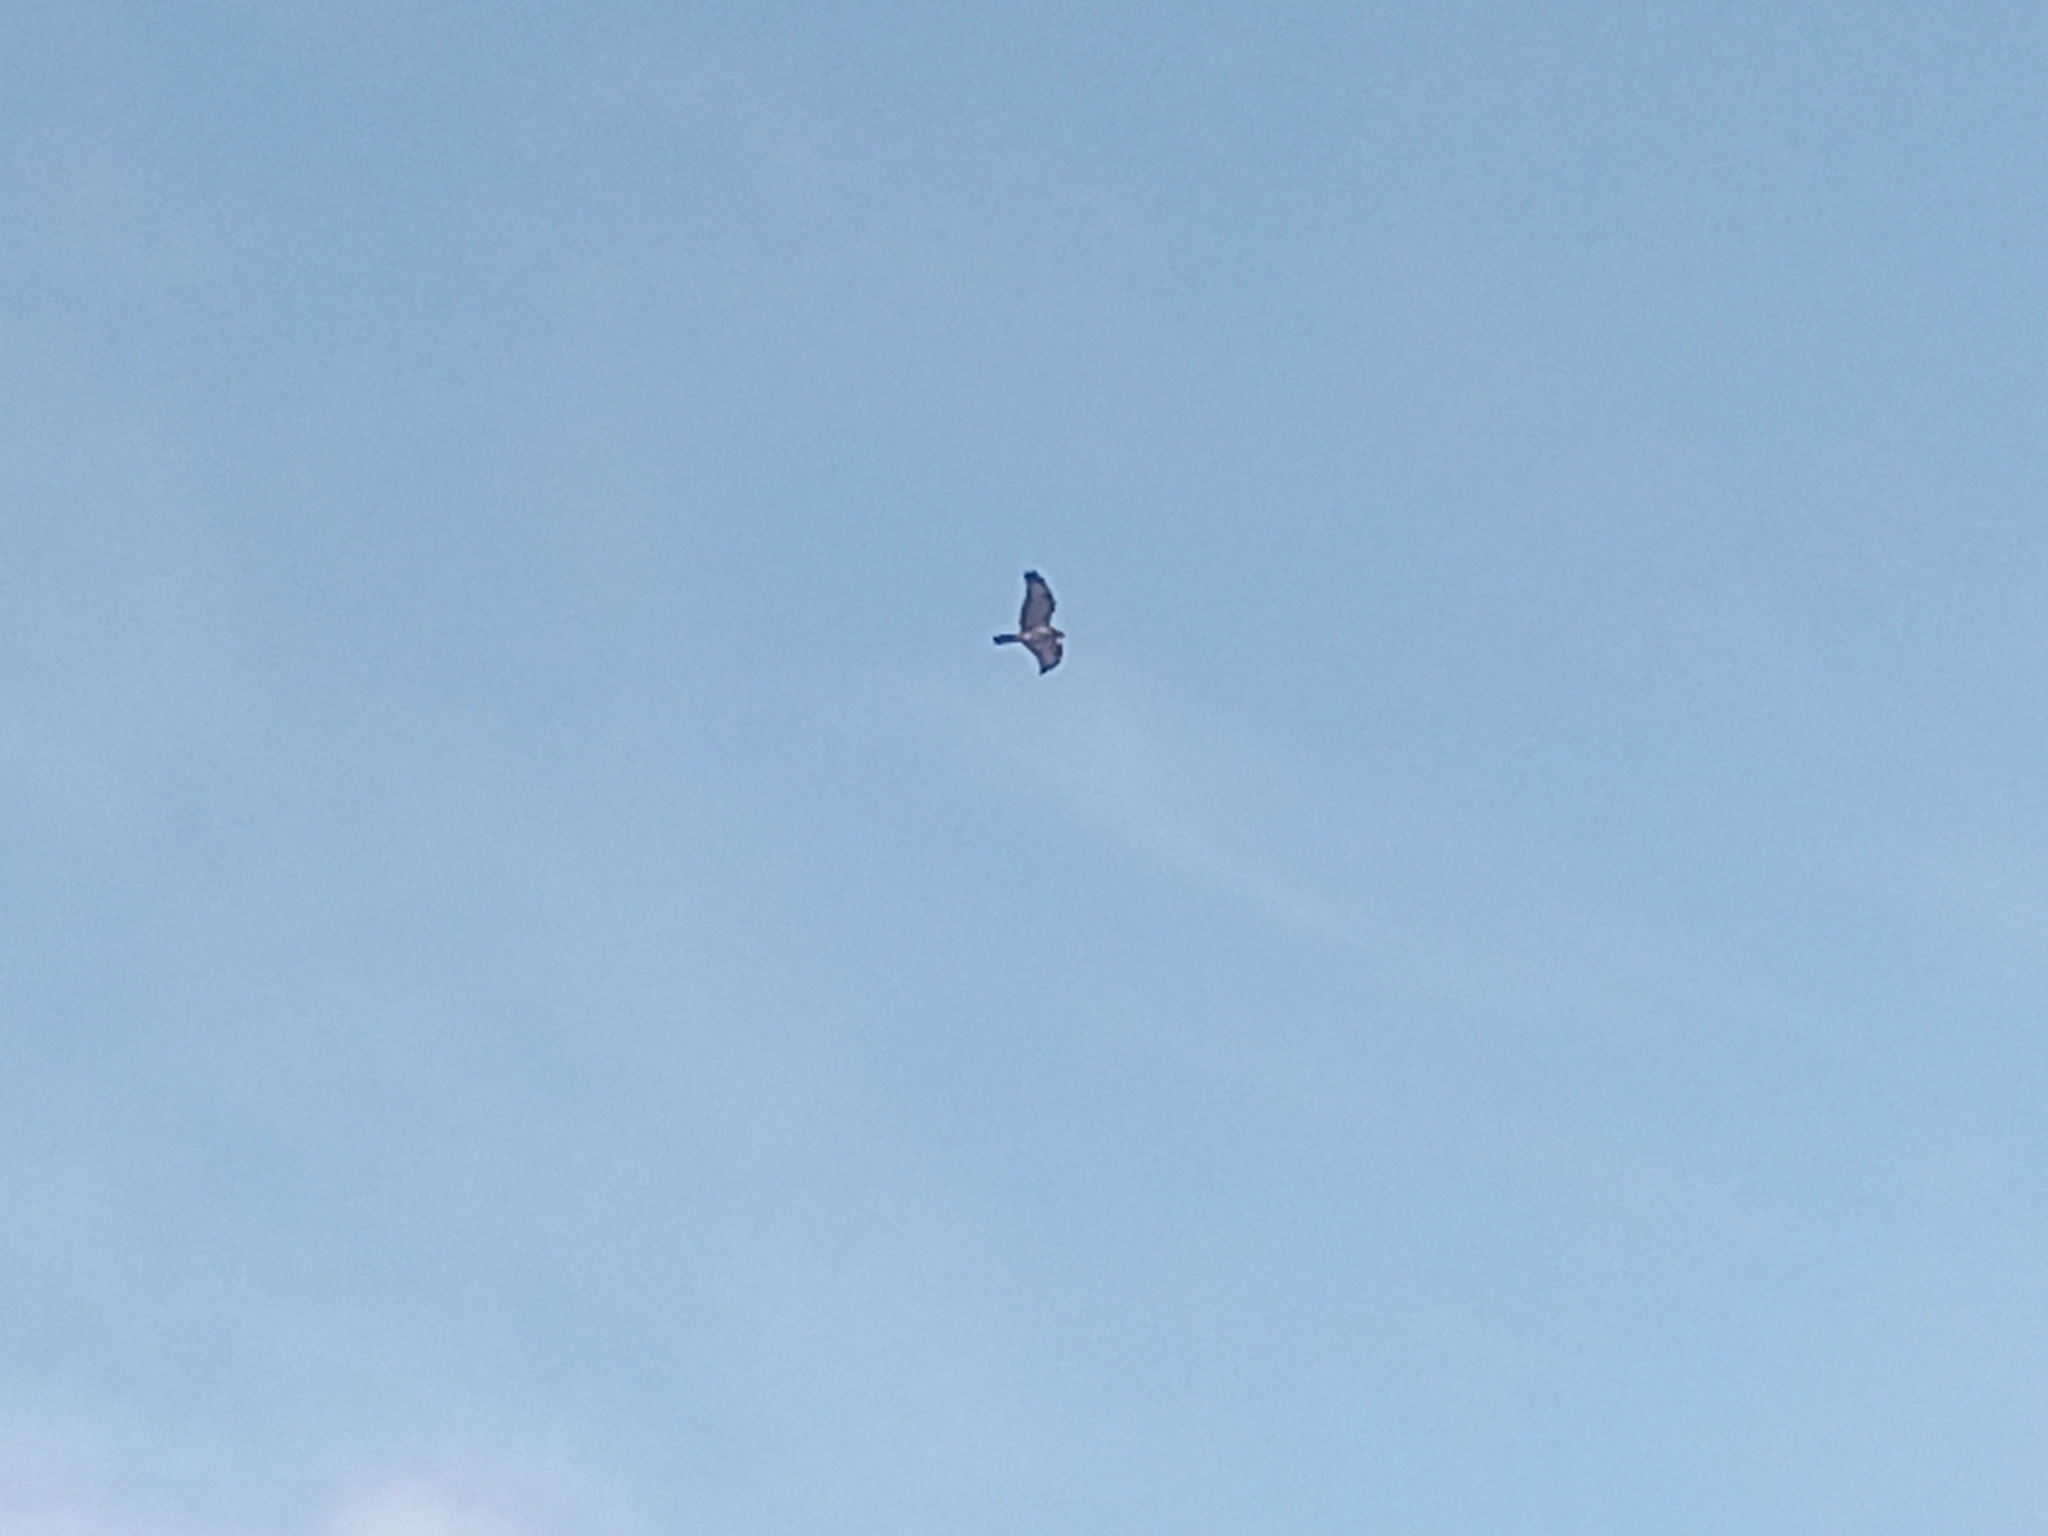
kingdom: Animalia
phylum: Chordata
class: Aves
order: Accipitriformes
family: Accipitridae
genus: Buteo
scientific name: Buteo buteo
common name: Common buzzard
